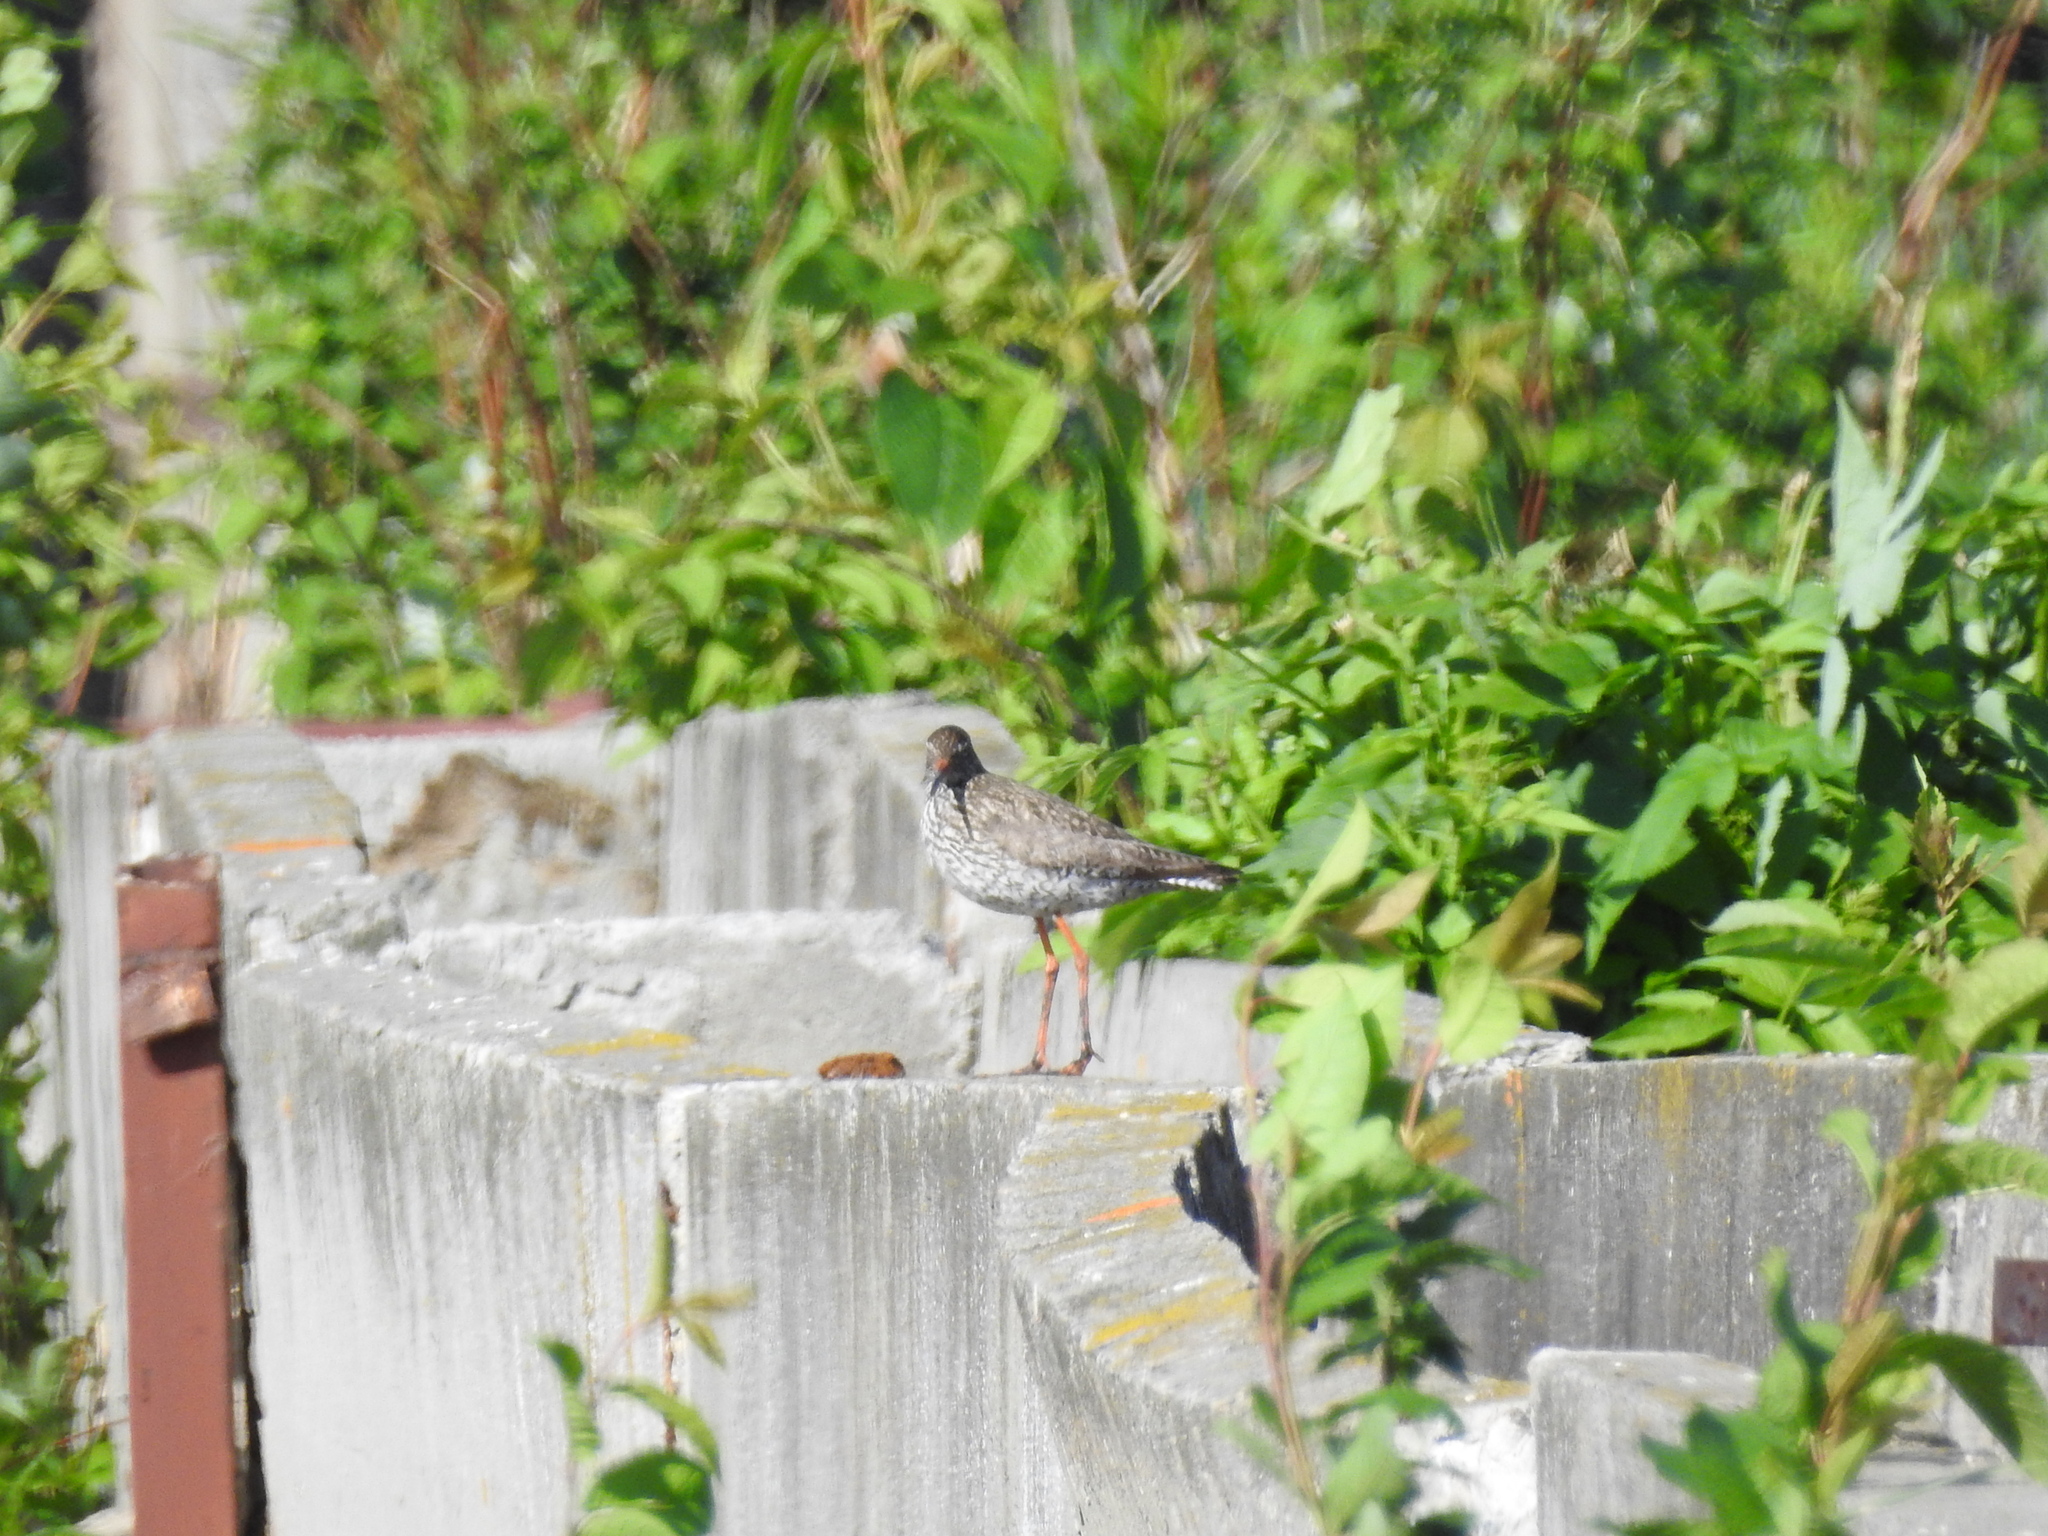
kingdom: Animalia
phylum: Chordata
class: Aves
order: Charadriiformes
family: Scolopacidae
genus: Tringa
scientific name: Tringa totanus
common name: Common redshank
